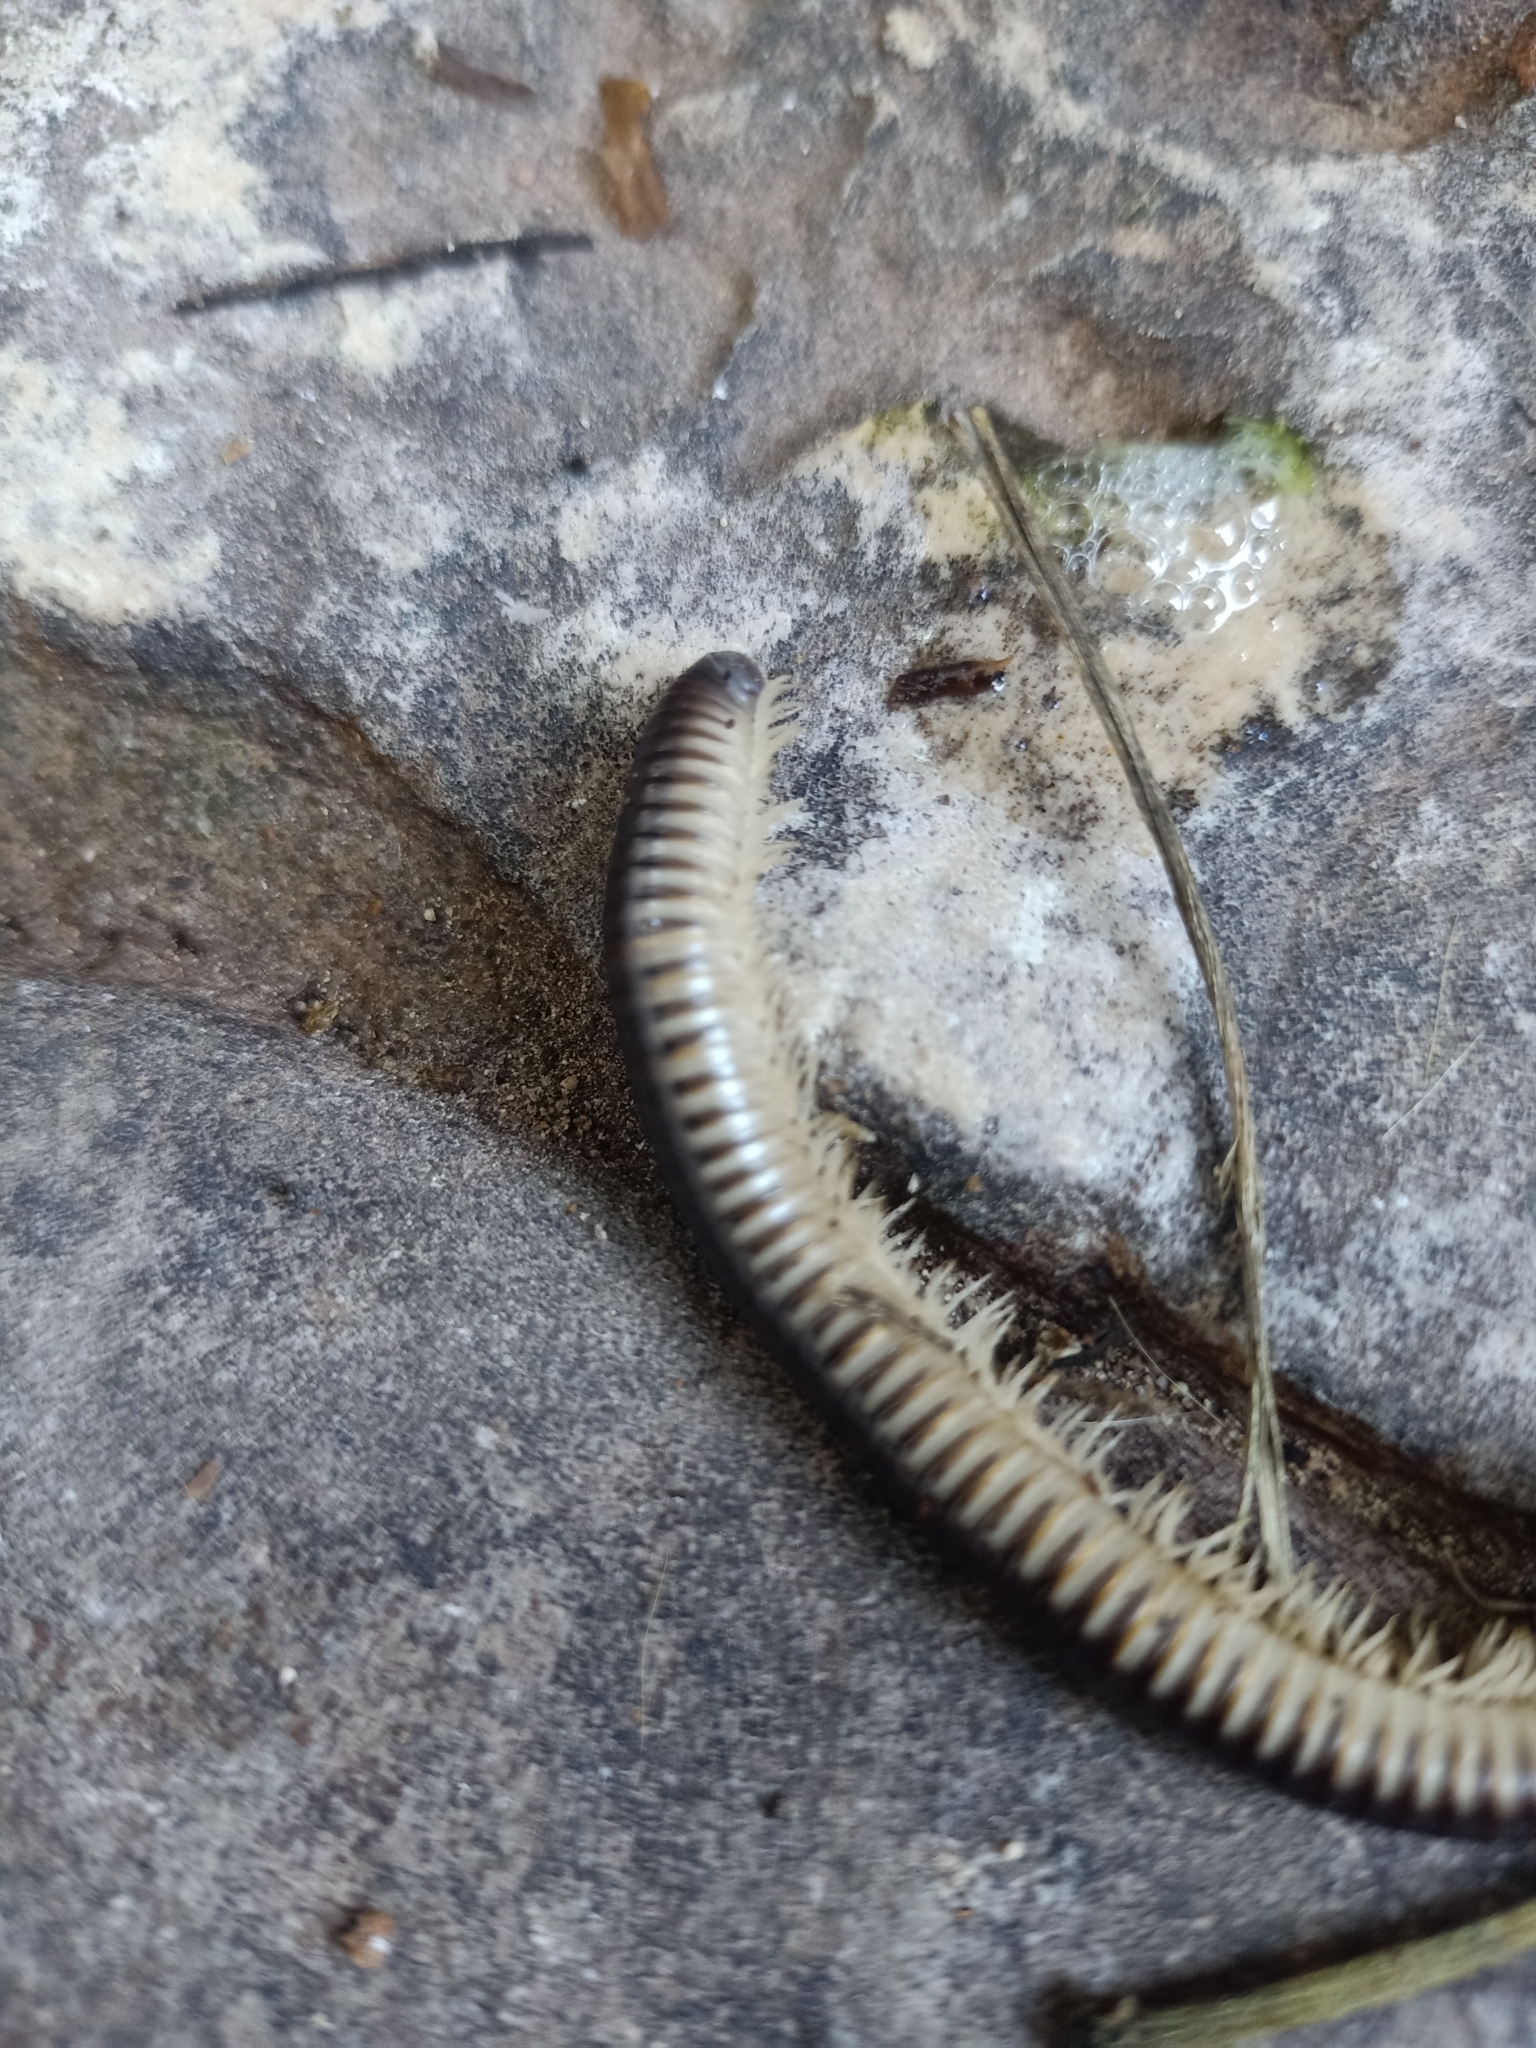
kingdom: Animalia
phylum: Arthropoda
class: Diplopoda
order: Julida
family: Julidae
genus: Pachyiulus
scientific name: Pachyiulus flavipes
